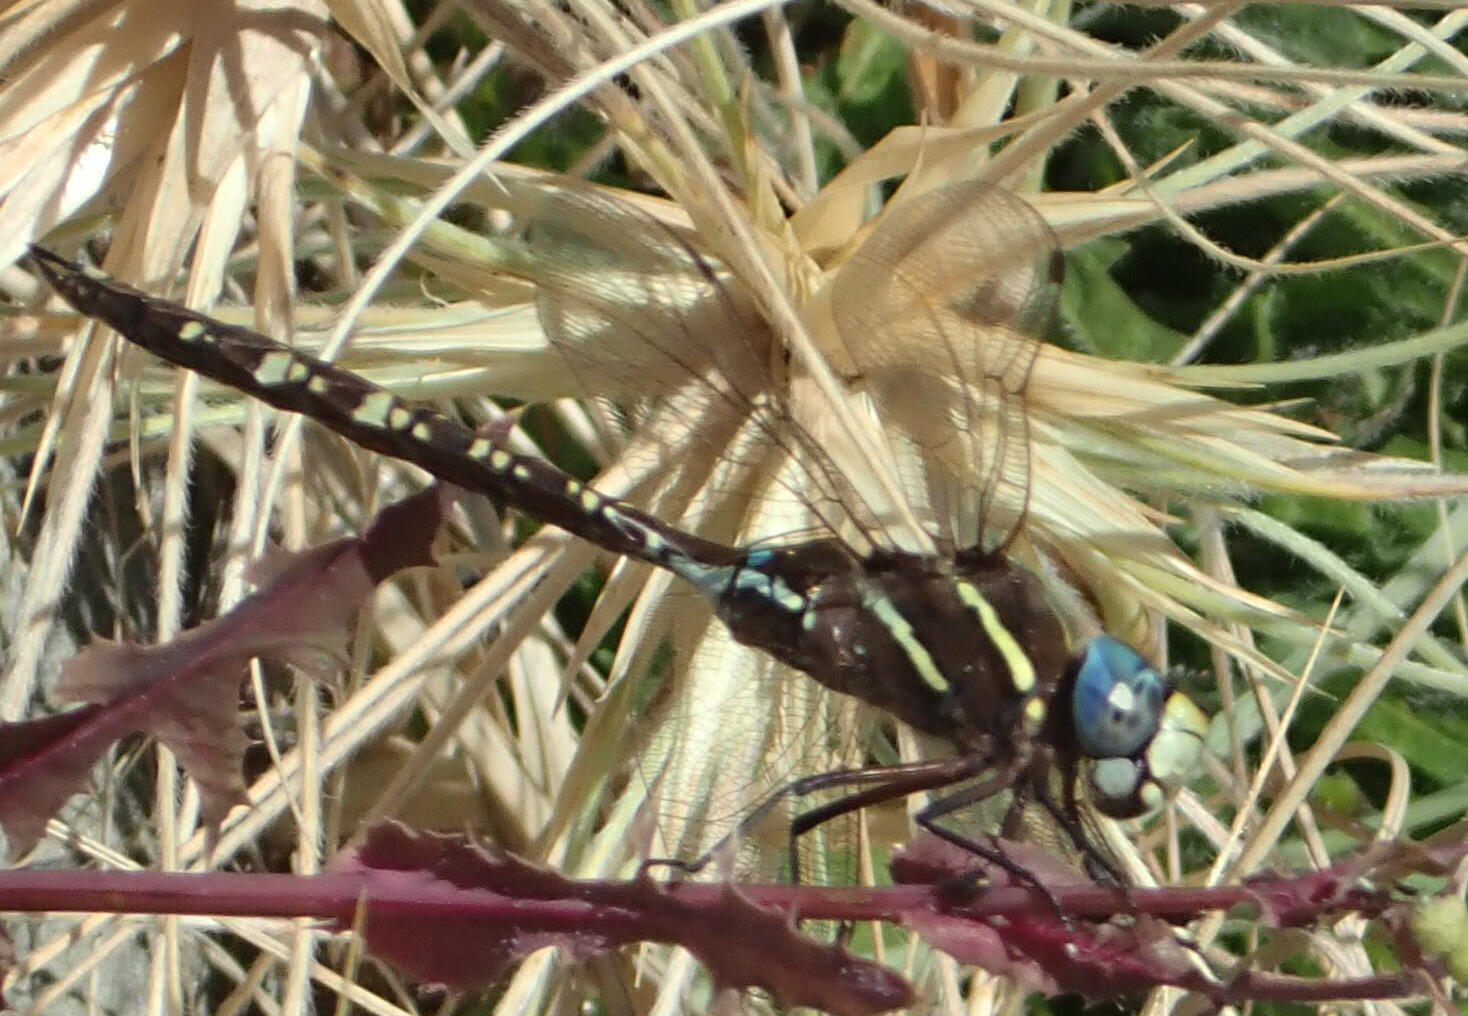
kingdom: Animalia
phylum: Arthropoda
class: Insecta
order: Odonata
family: Aeshnidae
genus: Aeshna
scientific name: Aeshna brevistyla
